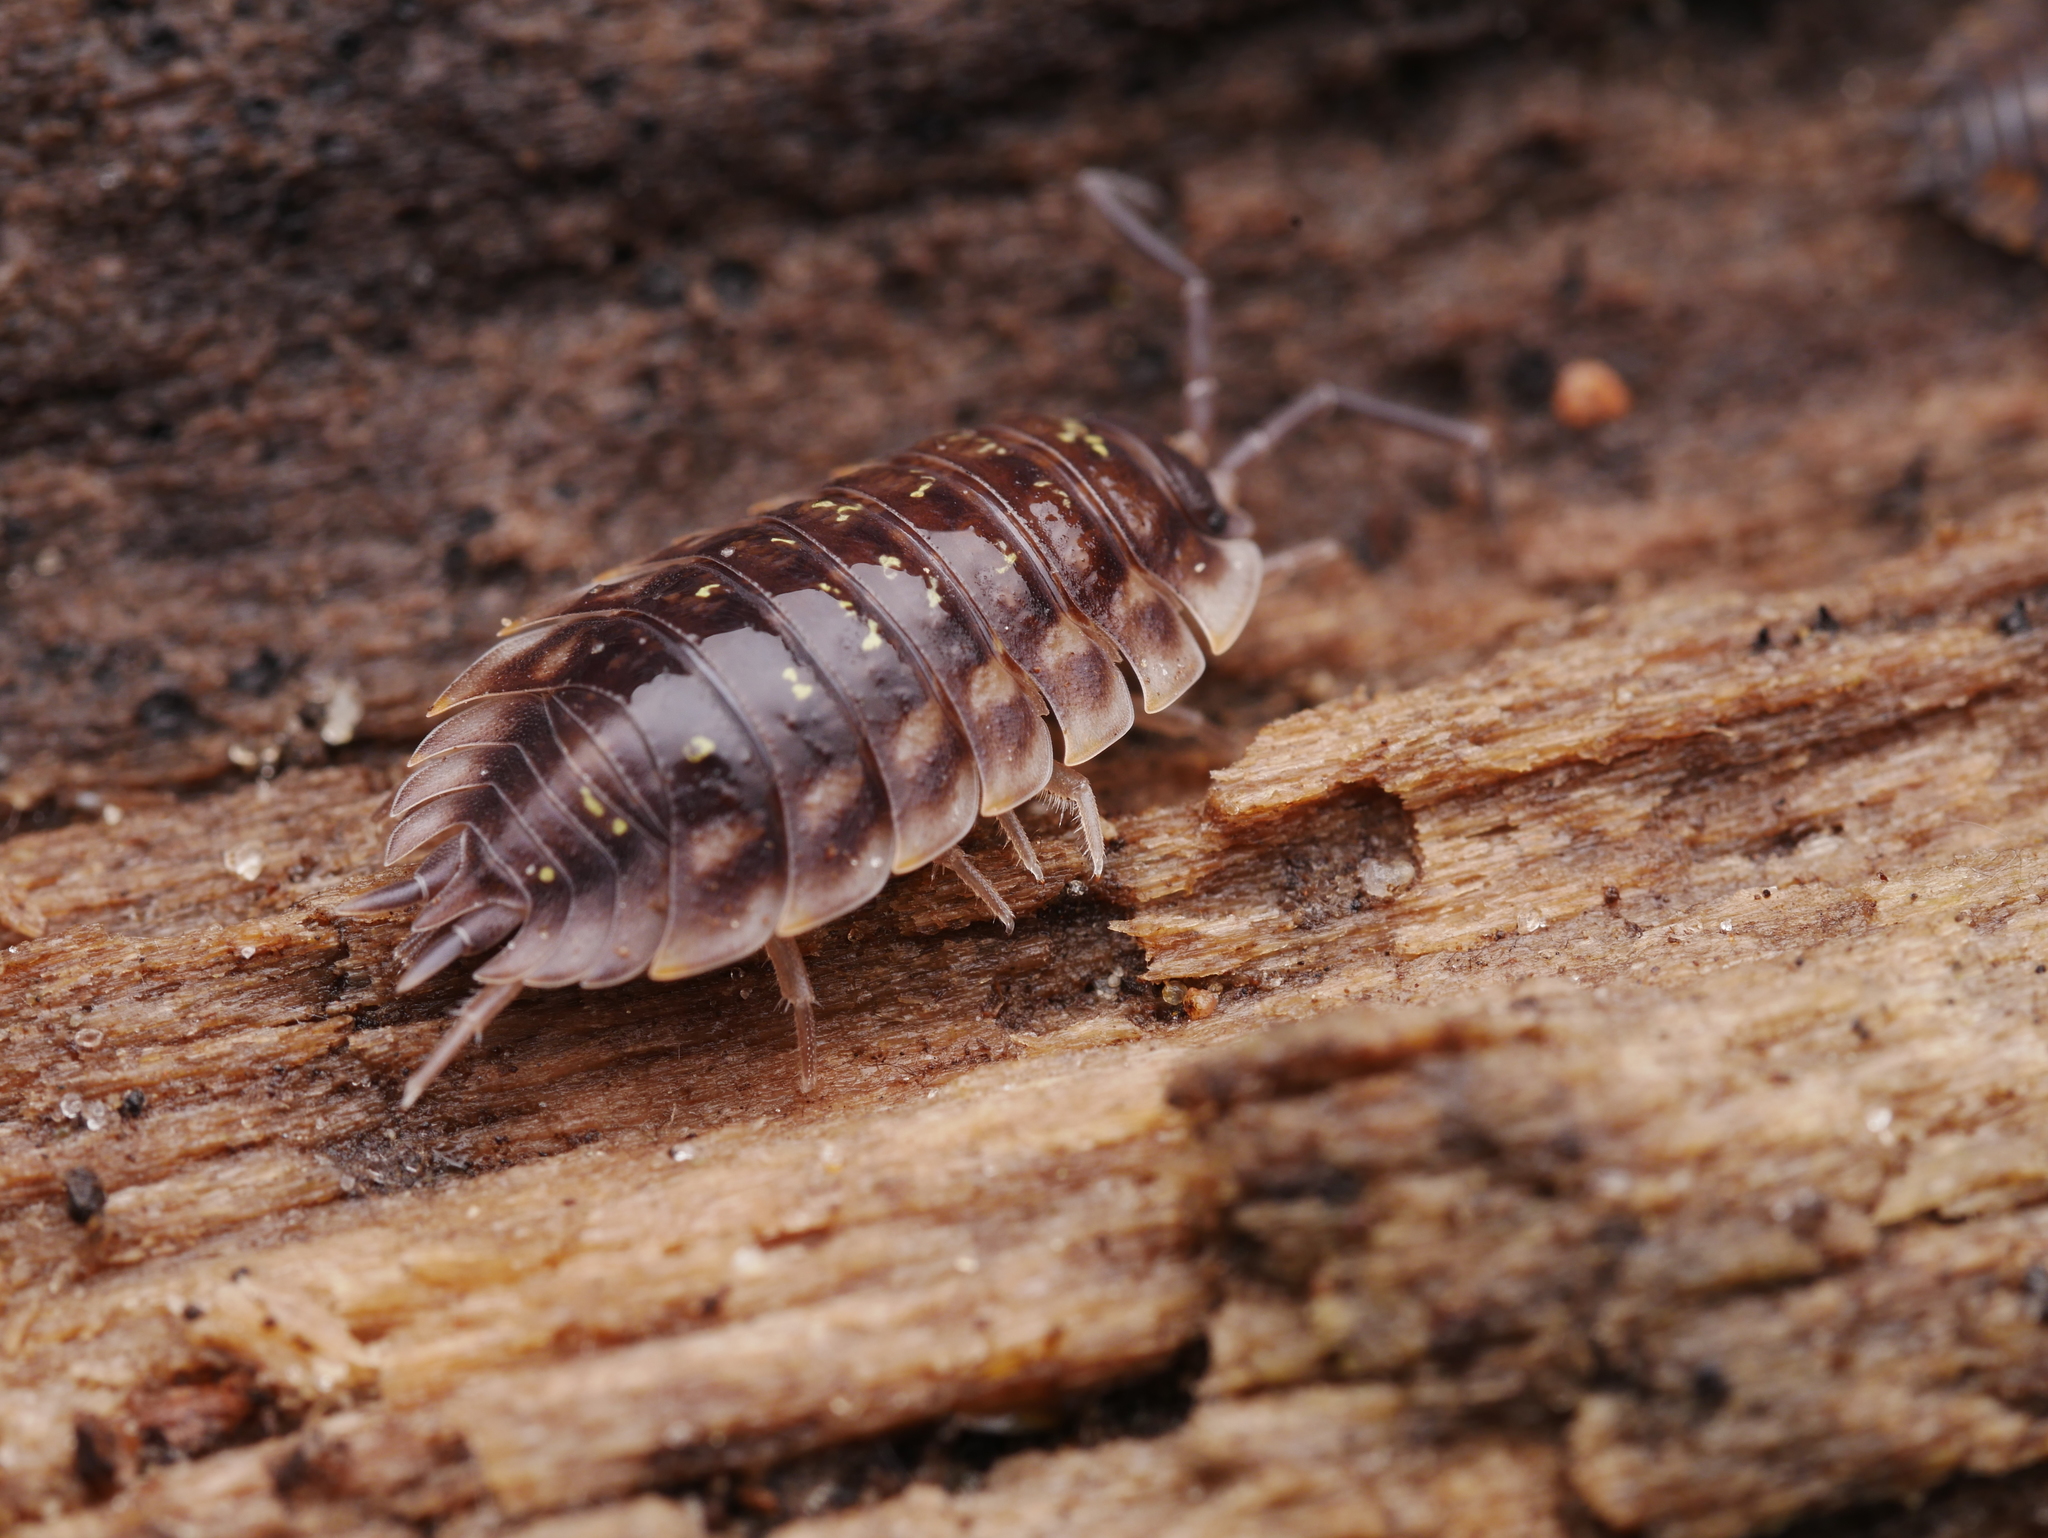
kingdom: Animalia
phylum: Arthropoda
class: Malacostraca
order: Isopoda
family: Oniscidae
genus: Oniscus
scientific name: Oniscus asellus
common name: Common shiny woodlouse
